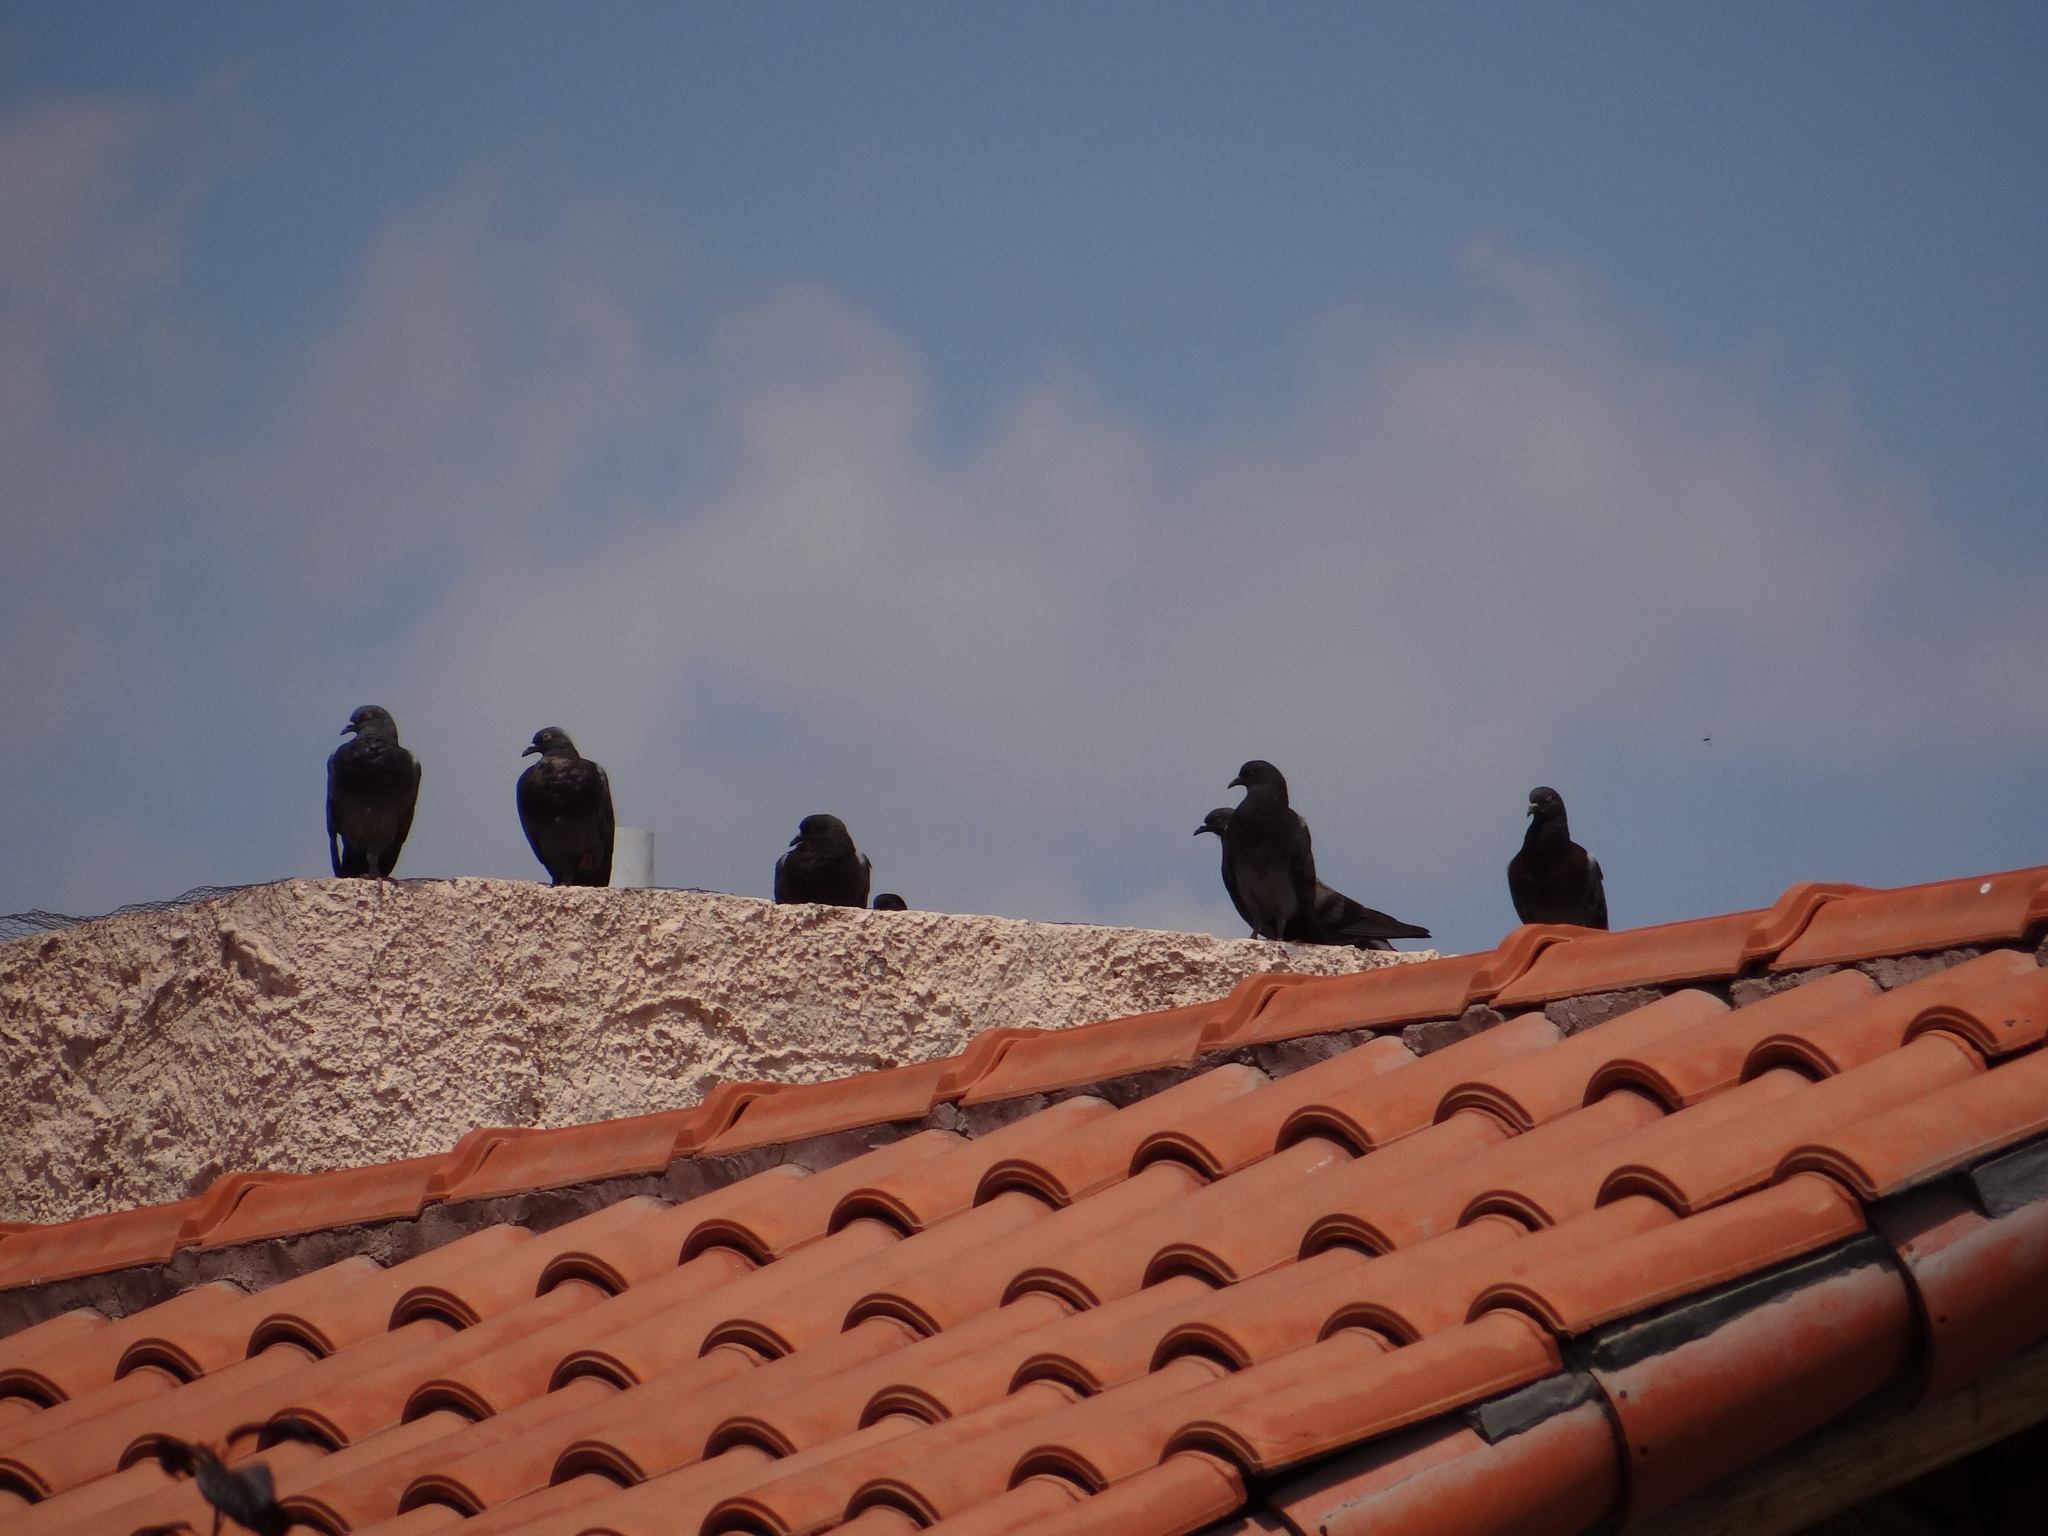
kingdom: Animalia
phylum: Chordata
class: Aves
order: Columbiformes
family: Columbidae
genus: Columba
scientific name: Columba livia
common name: Rock pigeon
